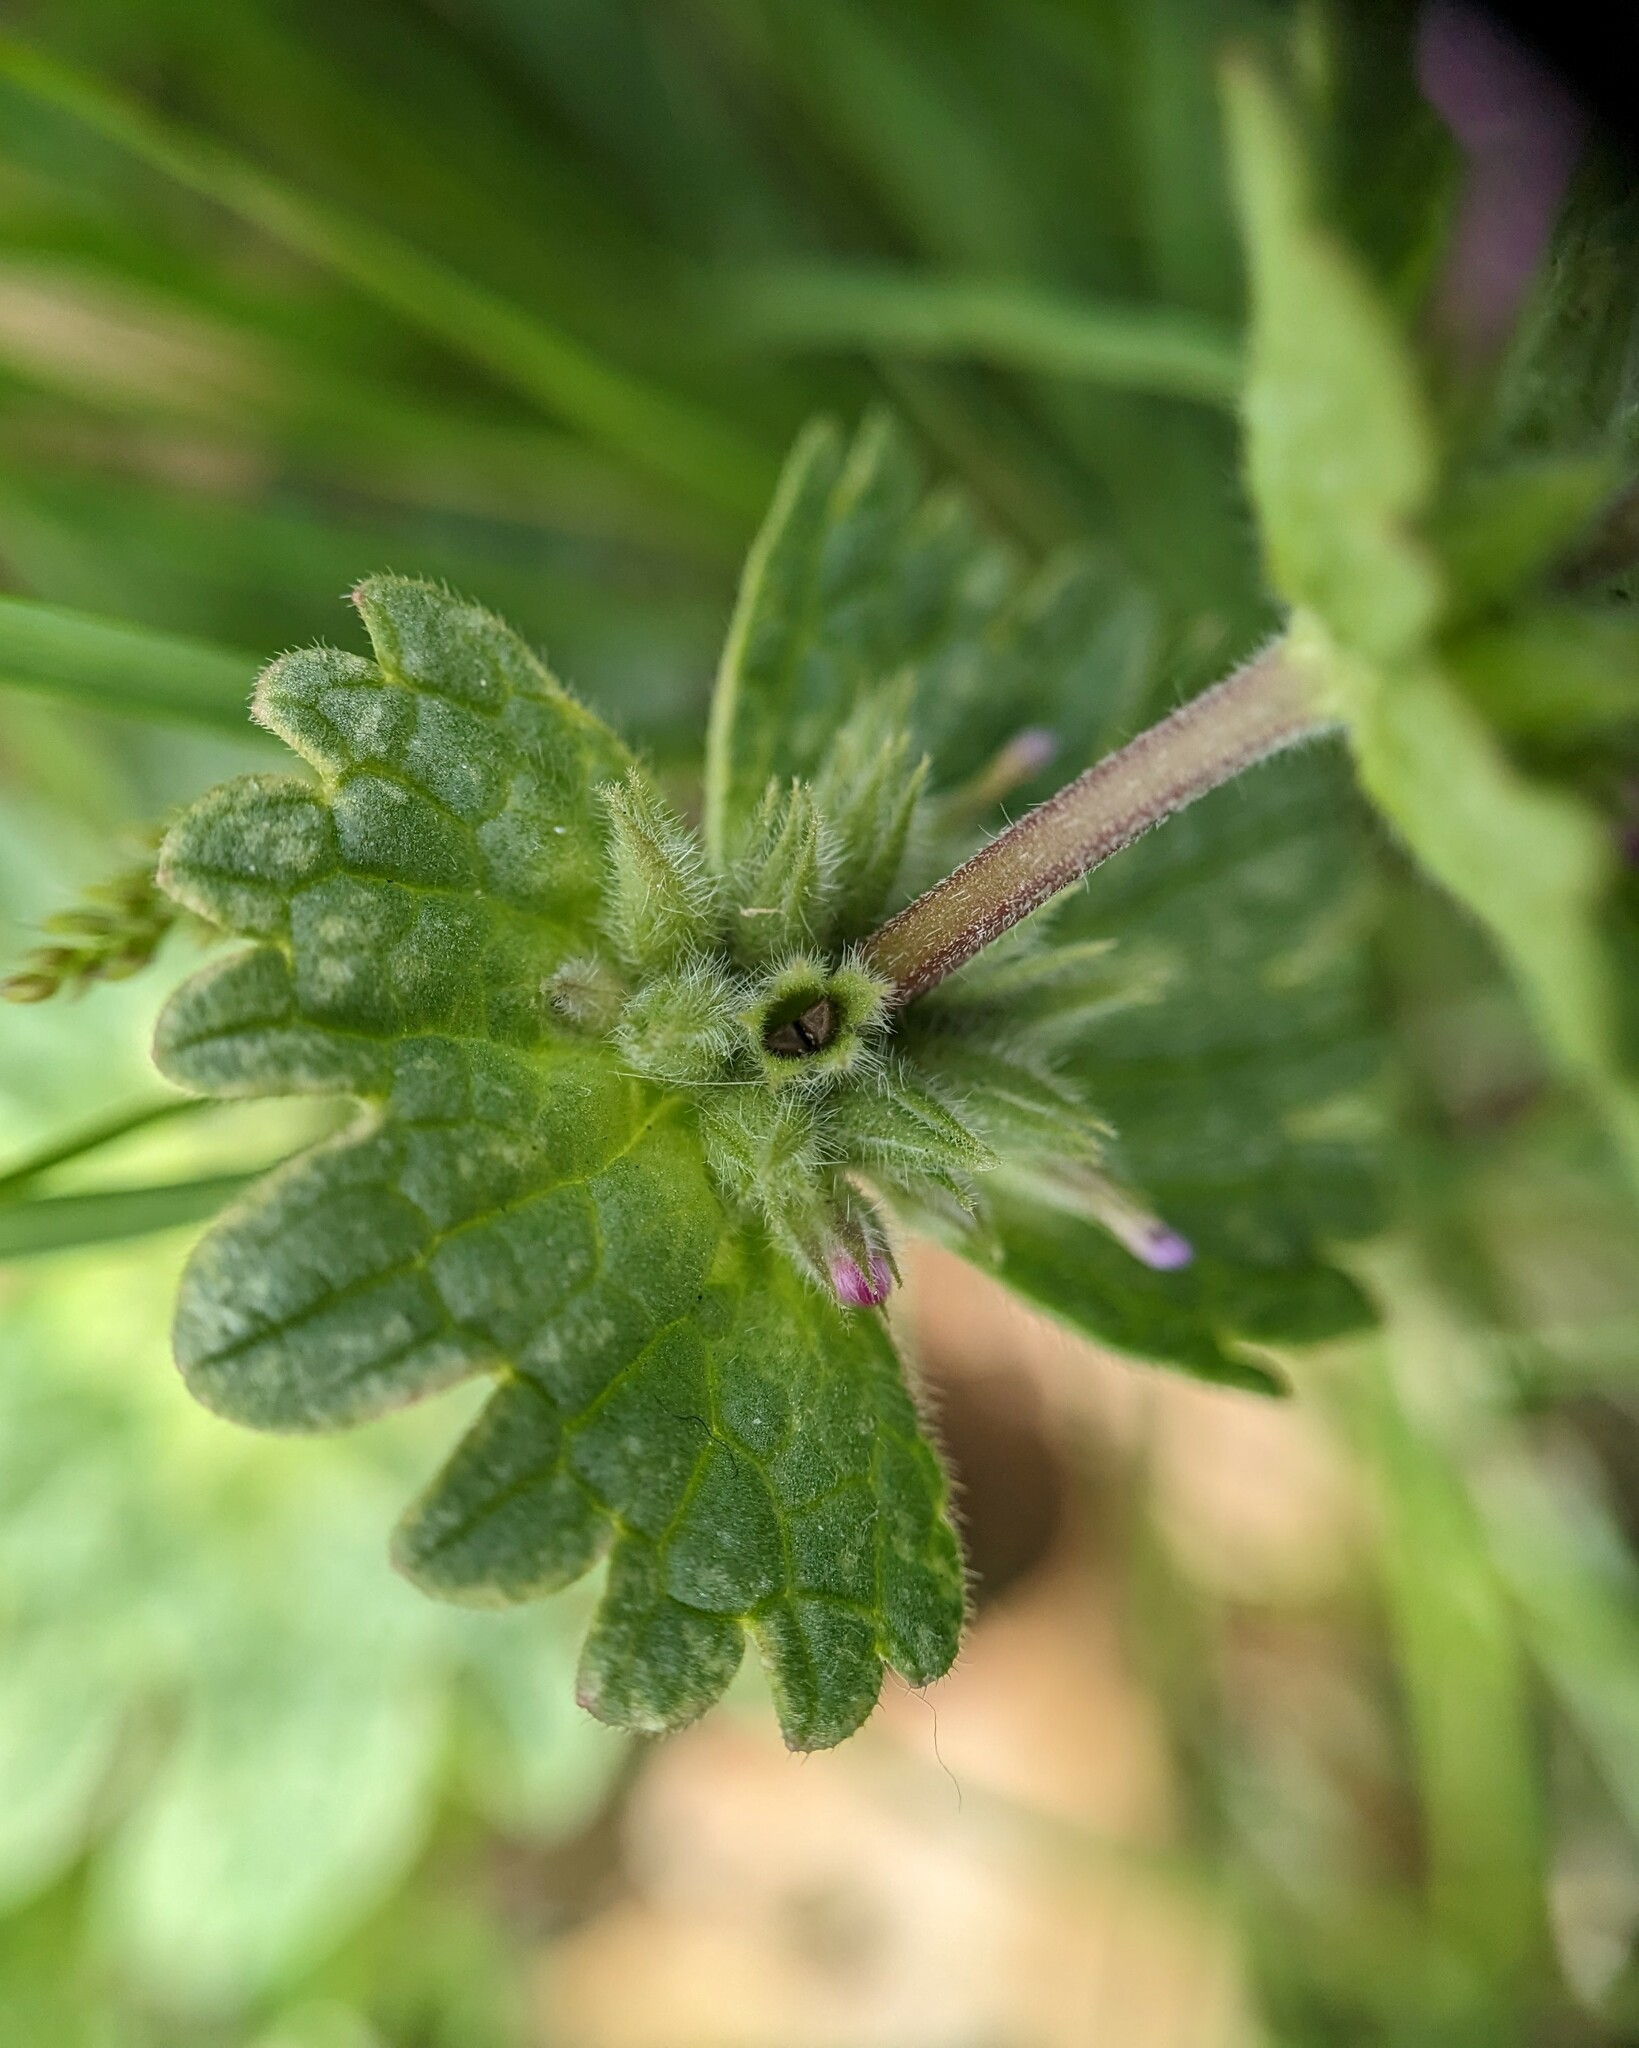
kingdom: Plantae
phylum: Tracheophyta
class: Magnoliopsida
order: Lamiales
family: Lamiaceae
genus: Lamium
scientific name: Lamium amplexicaule
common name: Henbit dead-nettle
